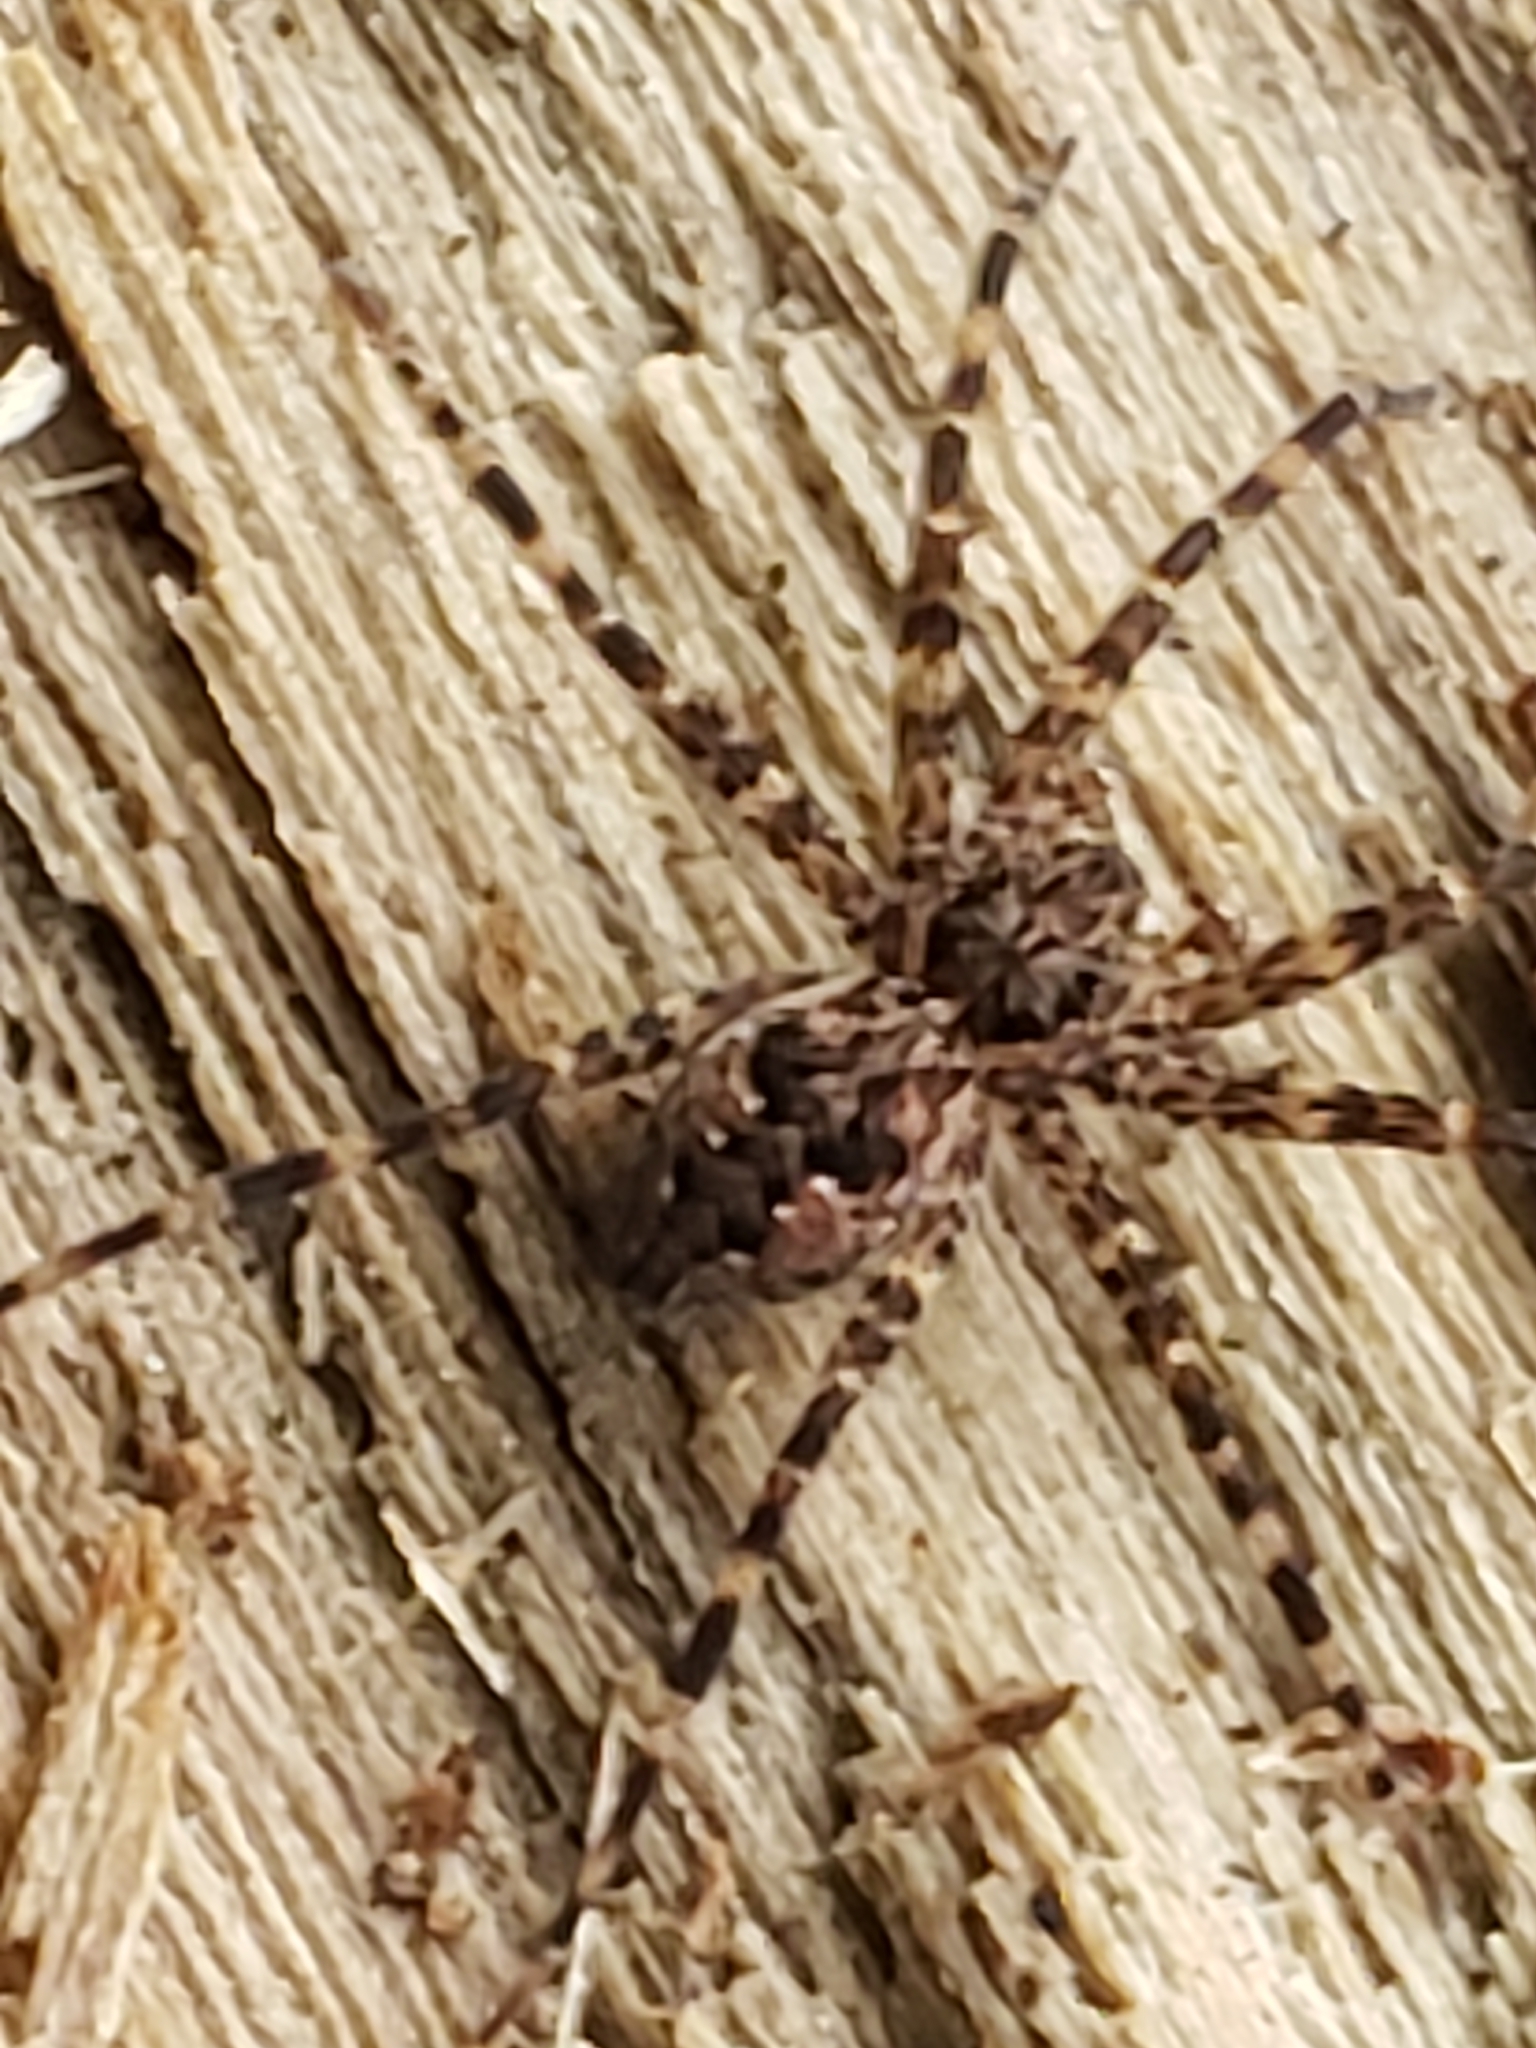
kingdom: Animalia
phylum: Arthropoda
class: Arachnida
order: Araneae
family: Pisauridae
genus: Dolomedes
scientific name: Dolomedes tenebrosus
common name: Dark fishing spider
